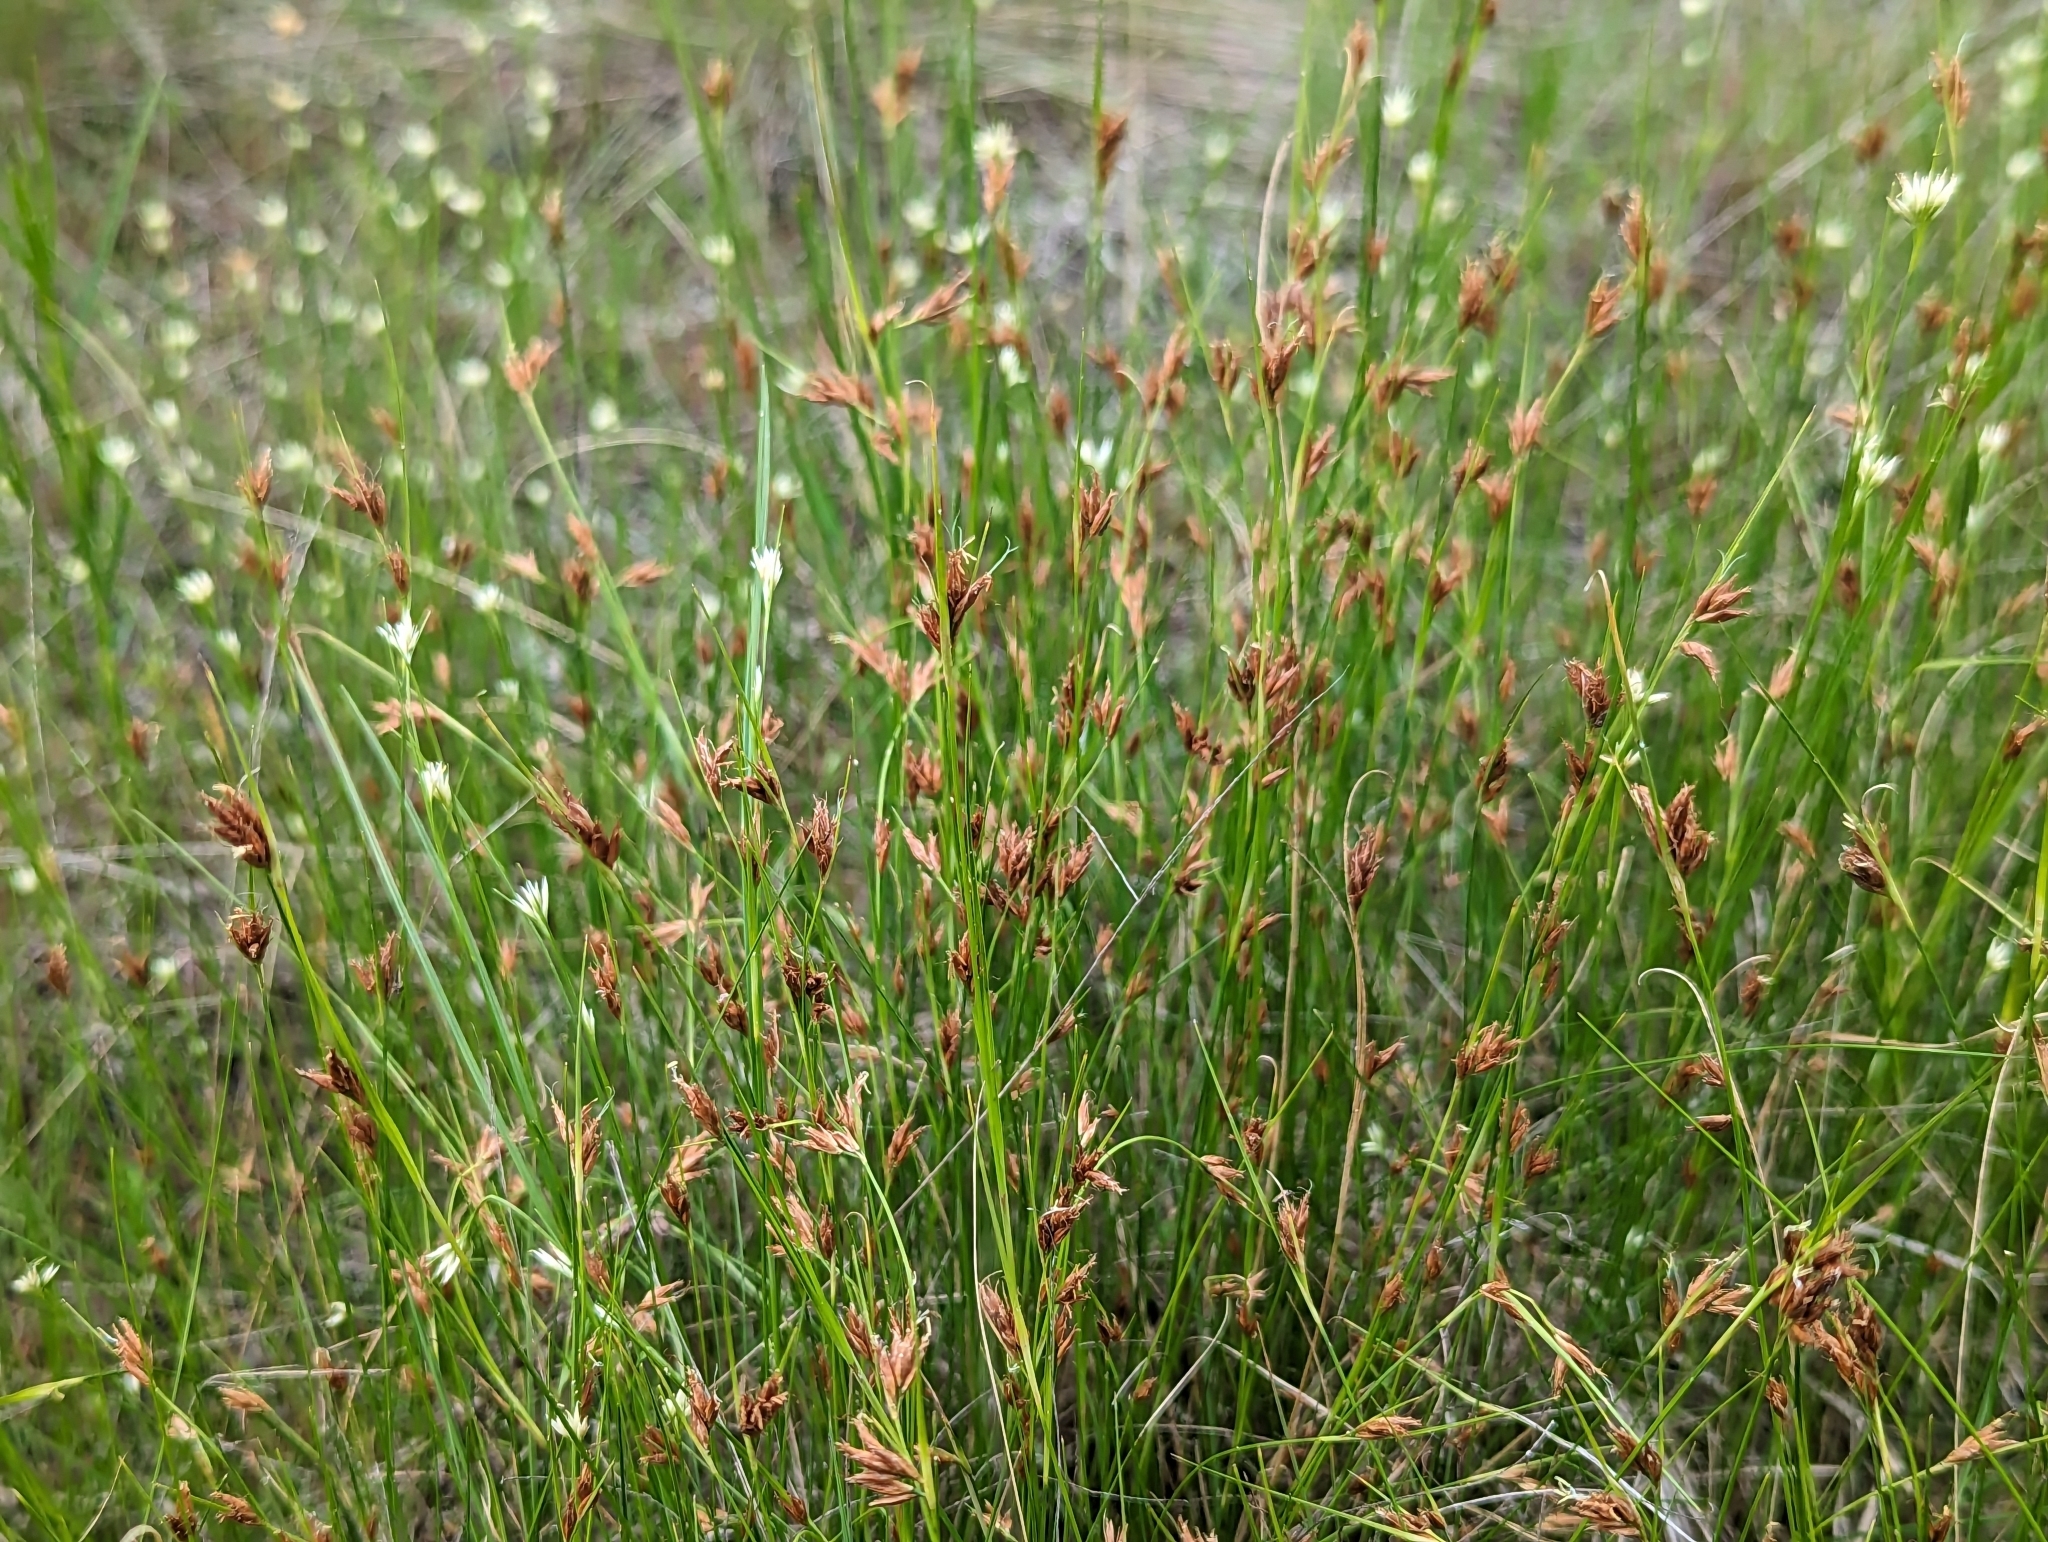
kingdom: Plantae
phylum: Tracheophyta
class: Liliopsida
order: Poales
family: Cyperaceae
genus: Rhynchospora
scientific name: Rhynchospora fusca
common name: Brown beak-sedge
